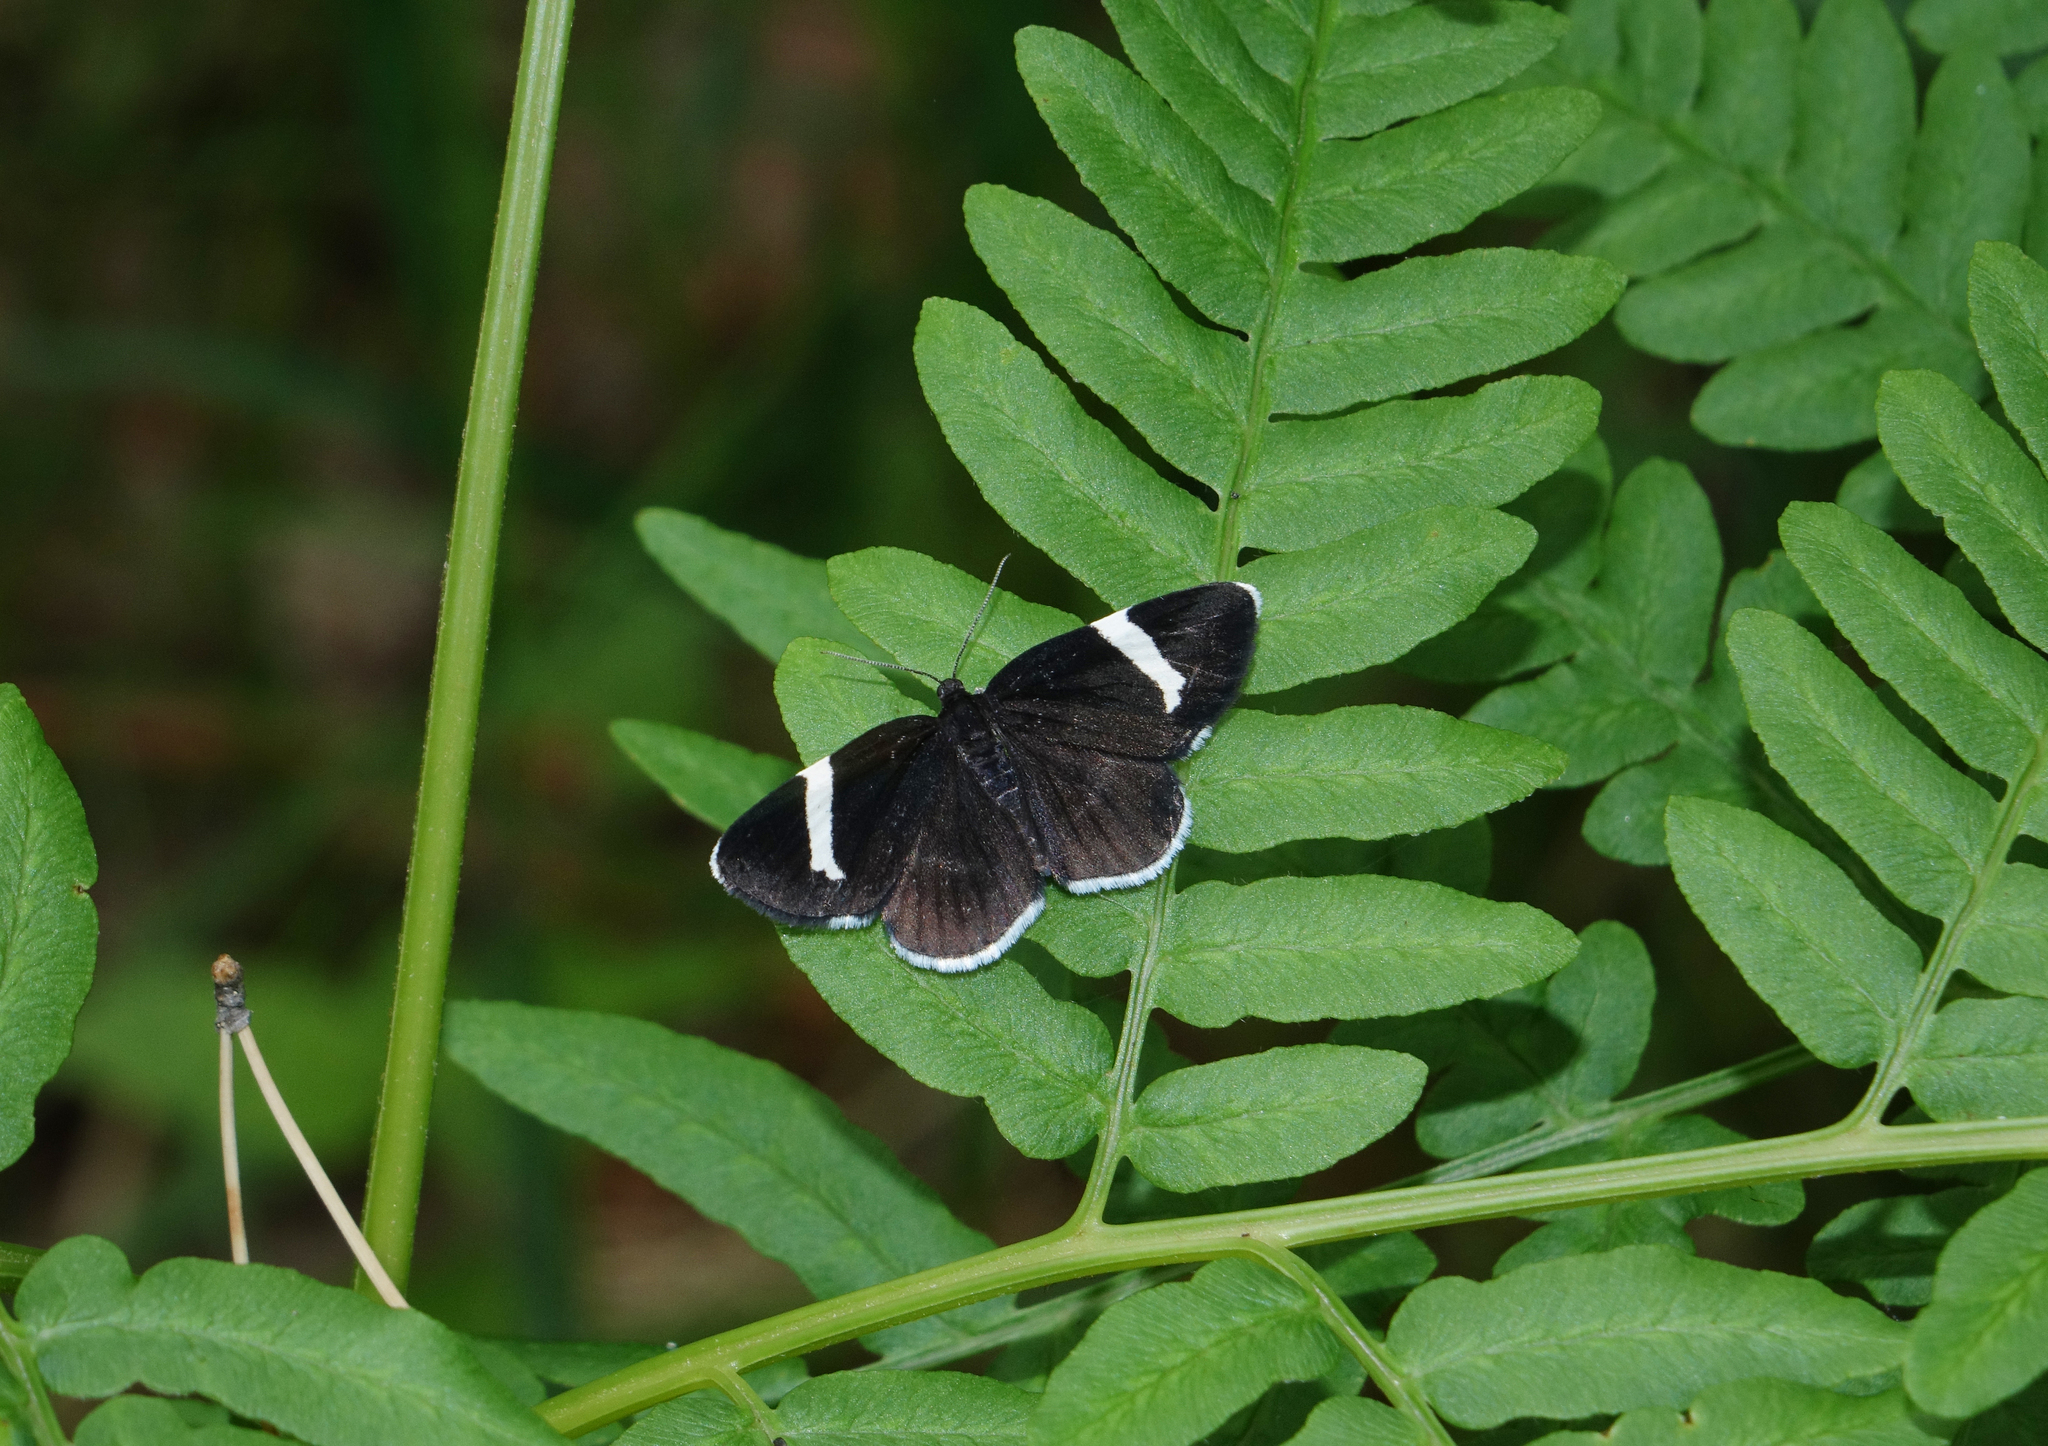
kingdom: Animalia
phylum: Arthropoda
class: Insecta
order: Lepidoptera
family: Geometridae
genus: Baptria
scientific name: Baptria tibiale
